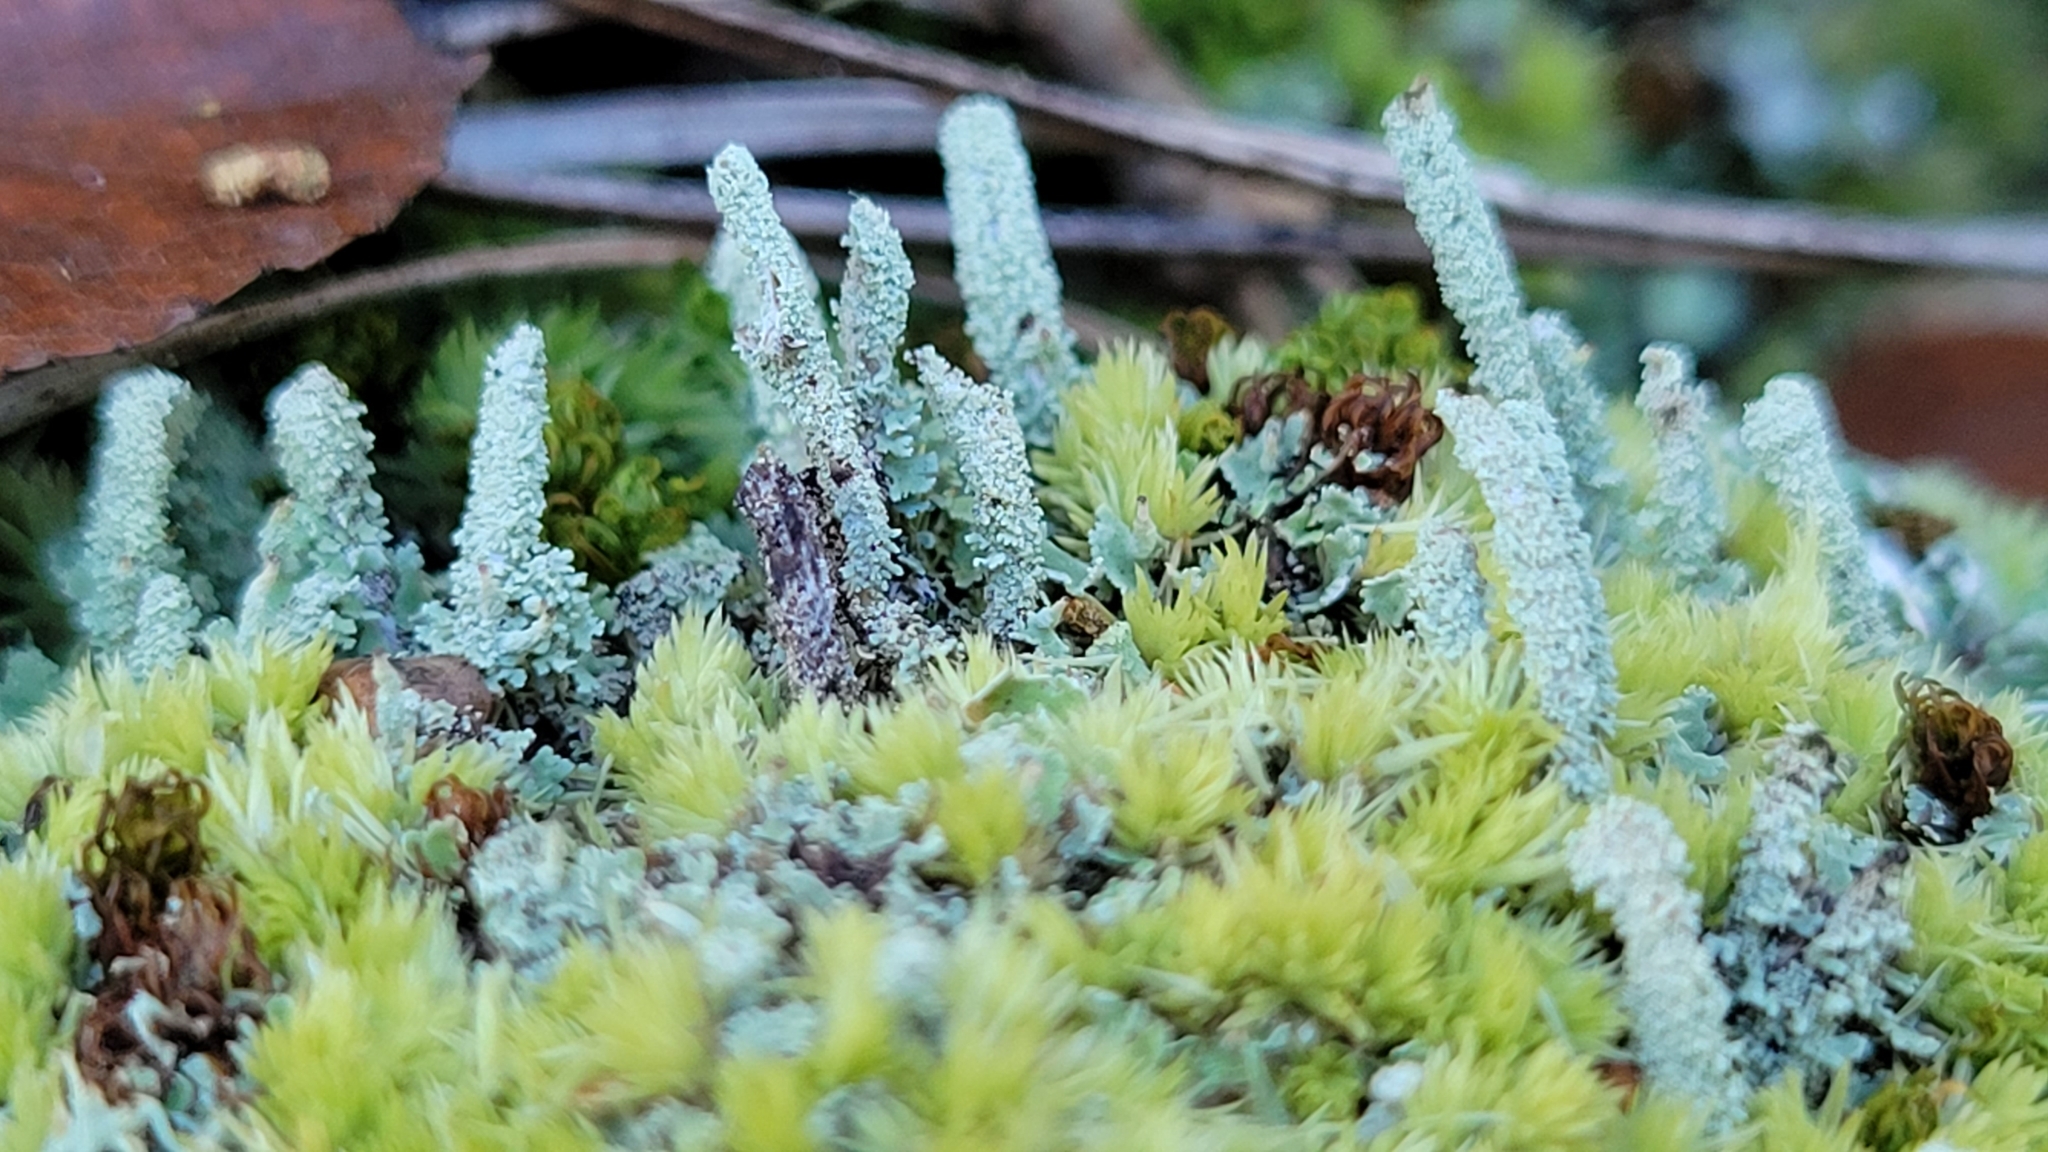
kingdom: Fungi
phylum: Ascomycota
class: Lecanoromycetes
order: Lecanorales
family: Cladoniaceae
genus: Cladonia
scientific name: Cladonia coniocraea
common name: Common powderhorn
